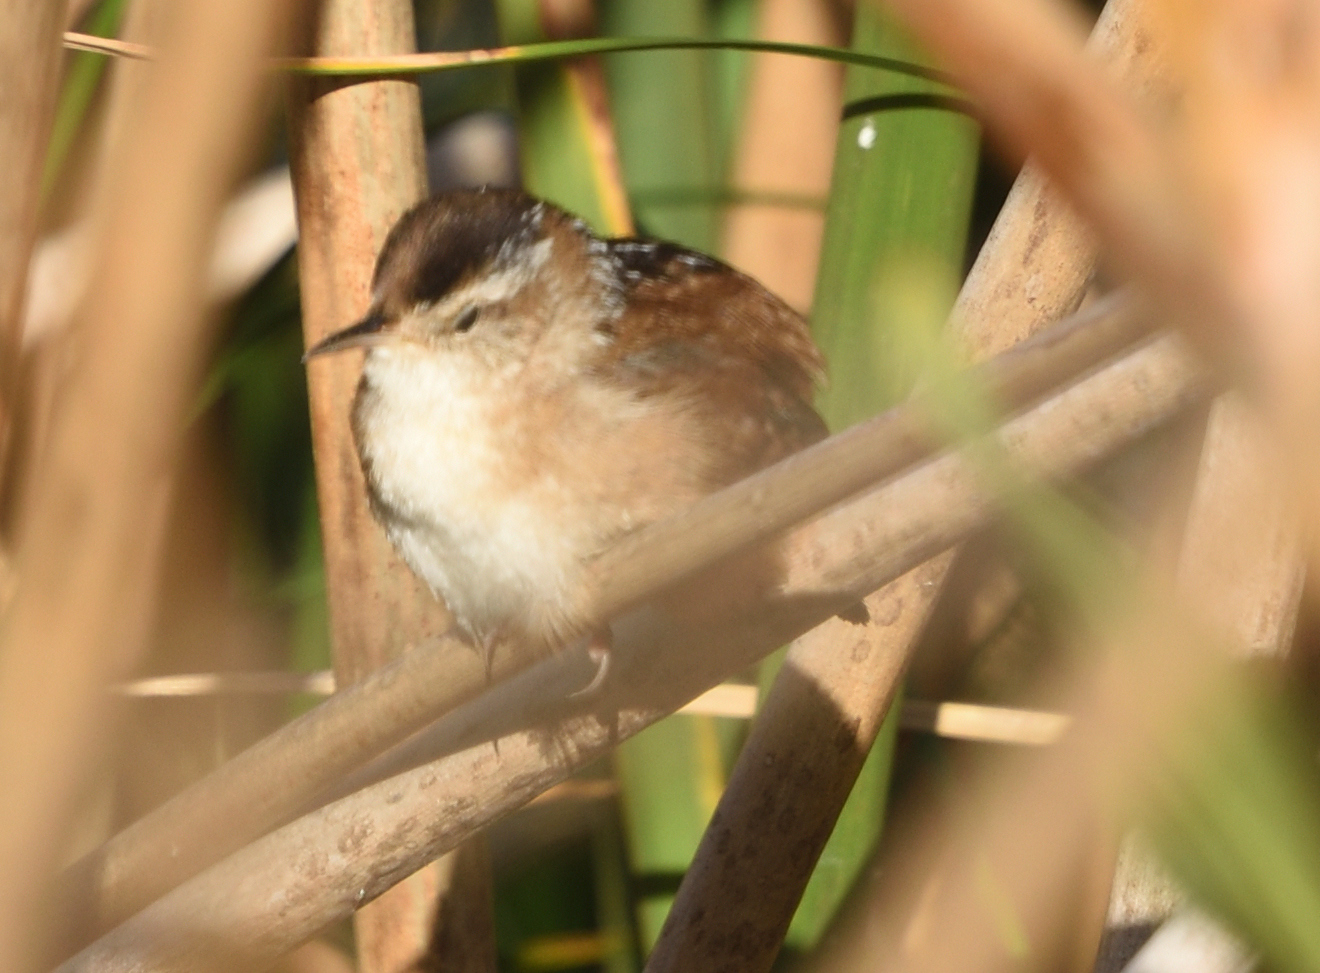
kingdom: Animalia
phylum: Chordata
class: Aves
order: Passeriformes
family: Troglodytidae
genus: Cistothorus
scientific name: Cistothorus palustris
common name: Marsh wren
